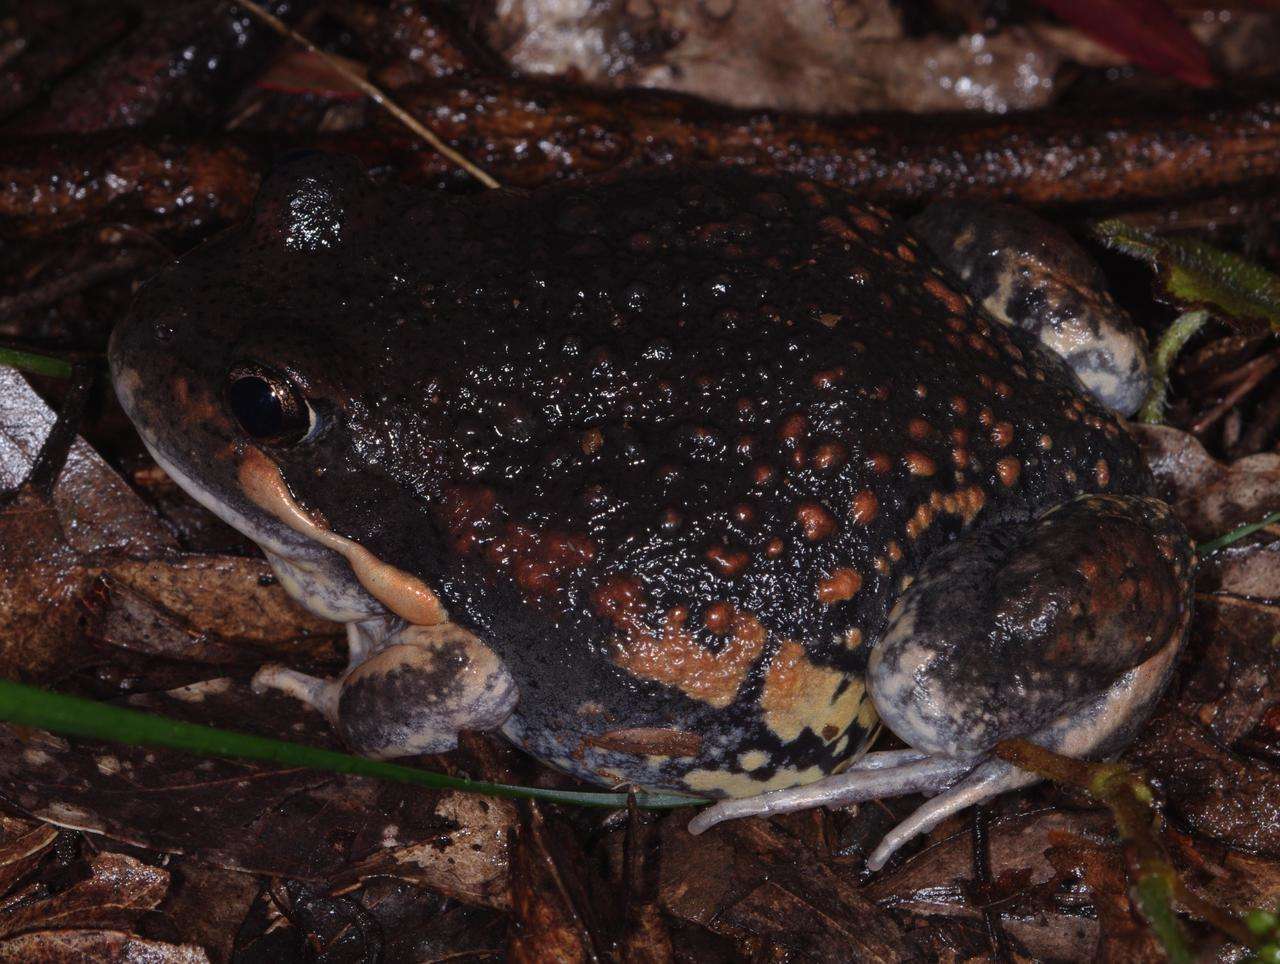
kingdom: Animalia
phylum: Chordata
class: Amphibia
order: Anura
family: Limnodynastidae
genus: Limnodynastes
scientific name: Limnodynastes dumerilii
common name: Banjo frog
